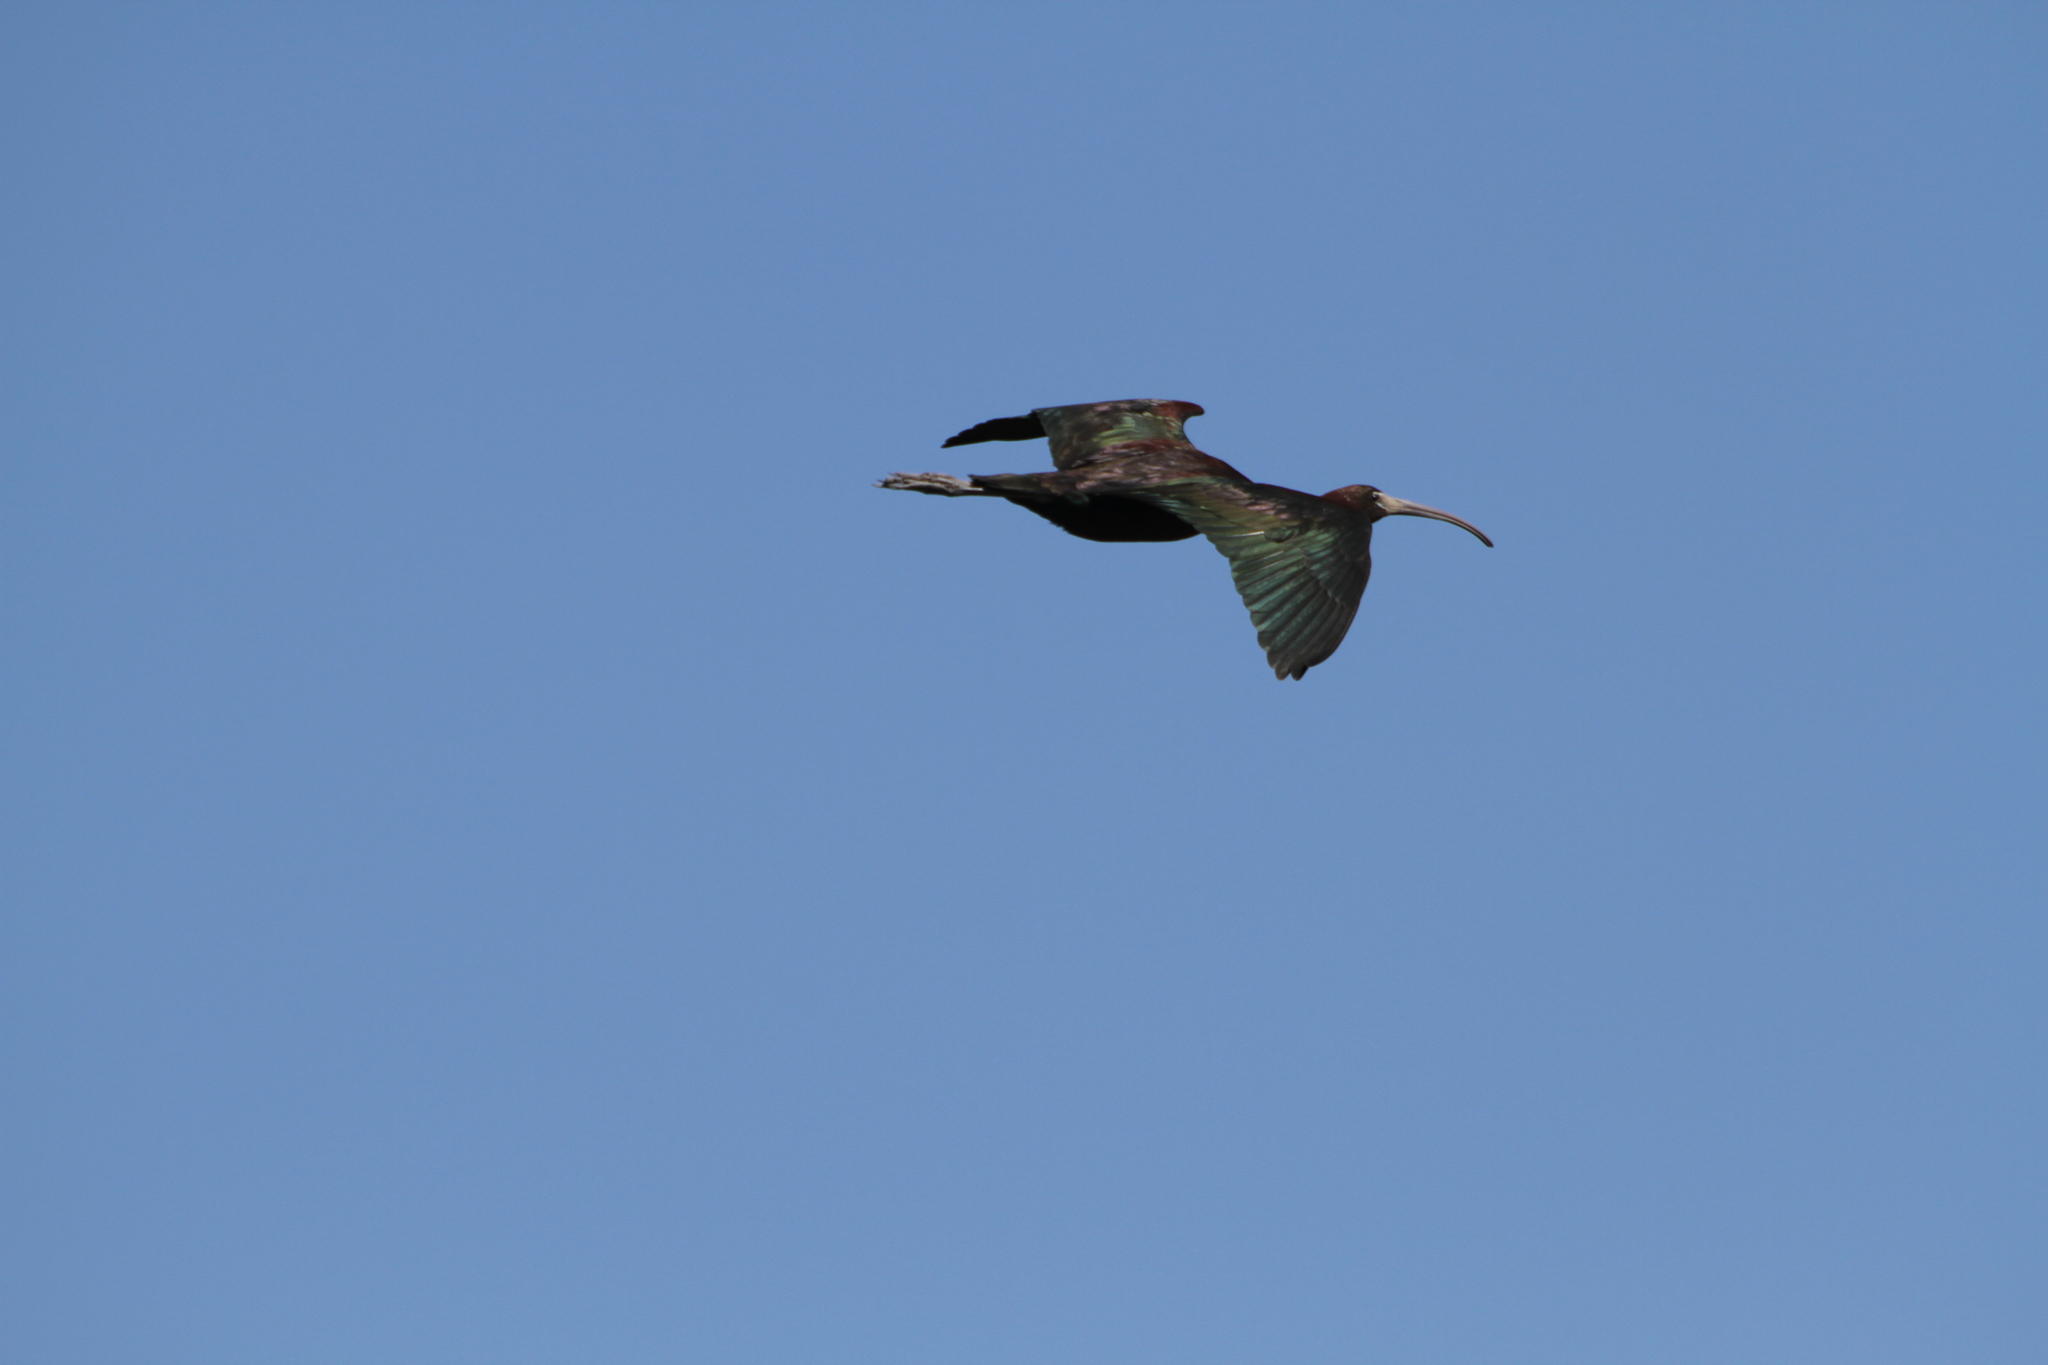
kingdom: Animalia
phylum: Chordata
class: Aves
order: Pelecaniformes
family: Threskiornithidae
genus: Plegadis
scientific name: Plegadis falcinellus
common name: Glossy ibis
